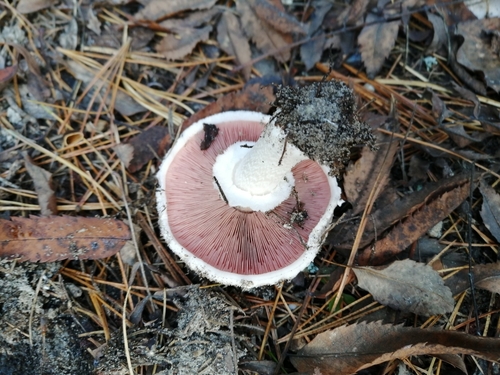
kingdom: Fungi
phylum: Basidiomycota
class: Agaricomycetes
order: Agaricales
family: Agaricaceae
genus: Agaricus
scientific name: Agaricus campestris
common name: Field mushroom
